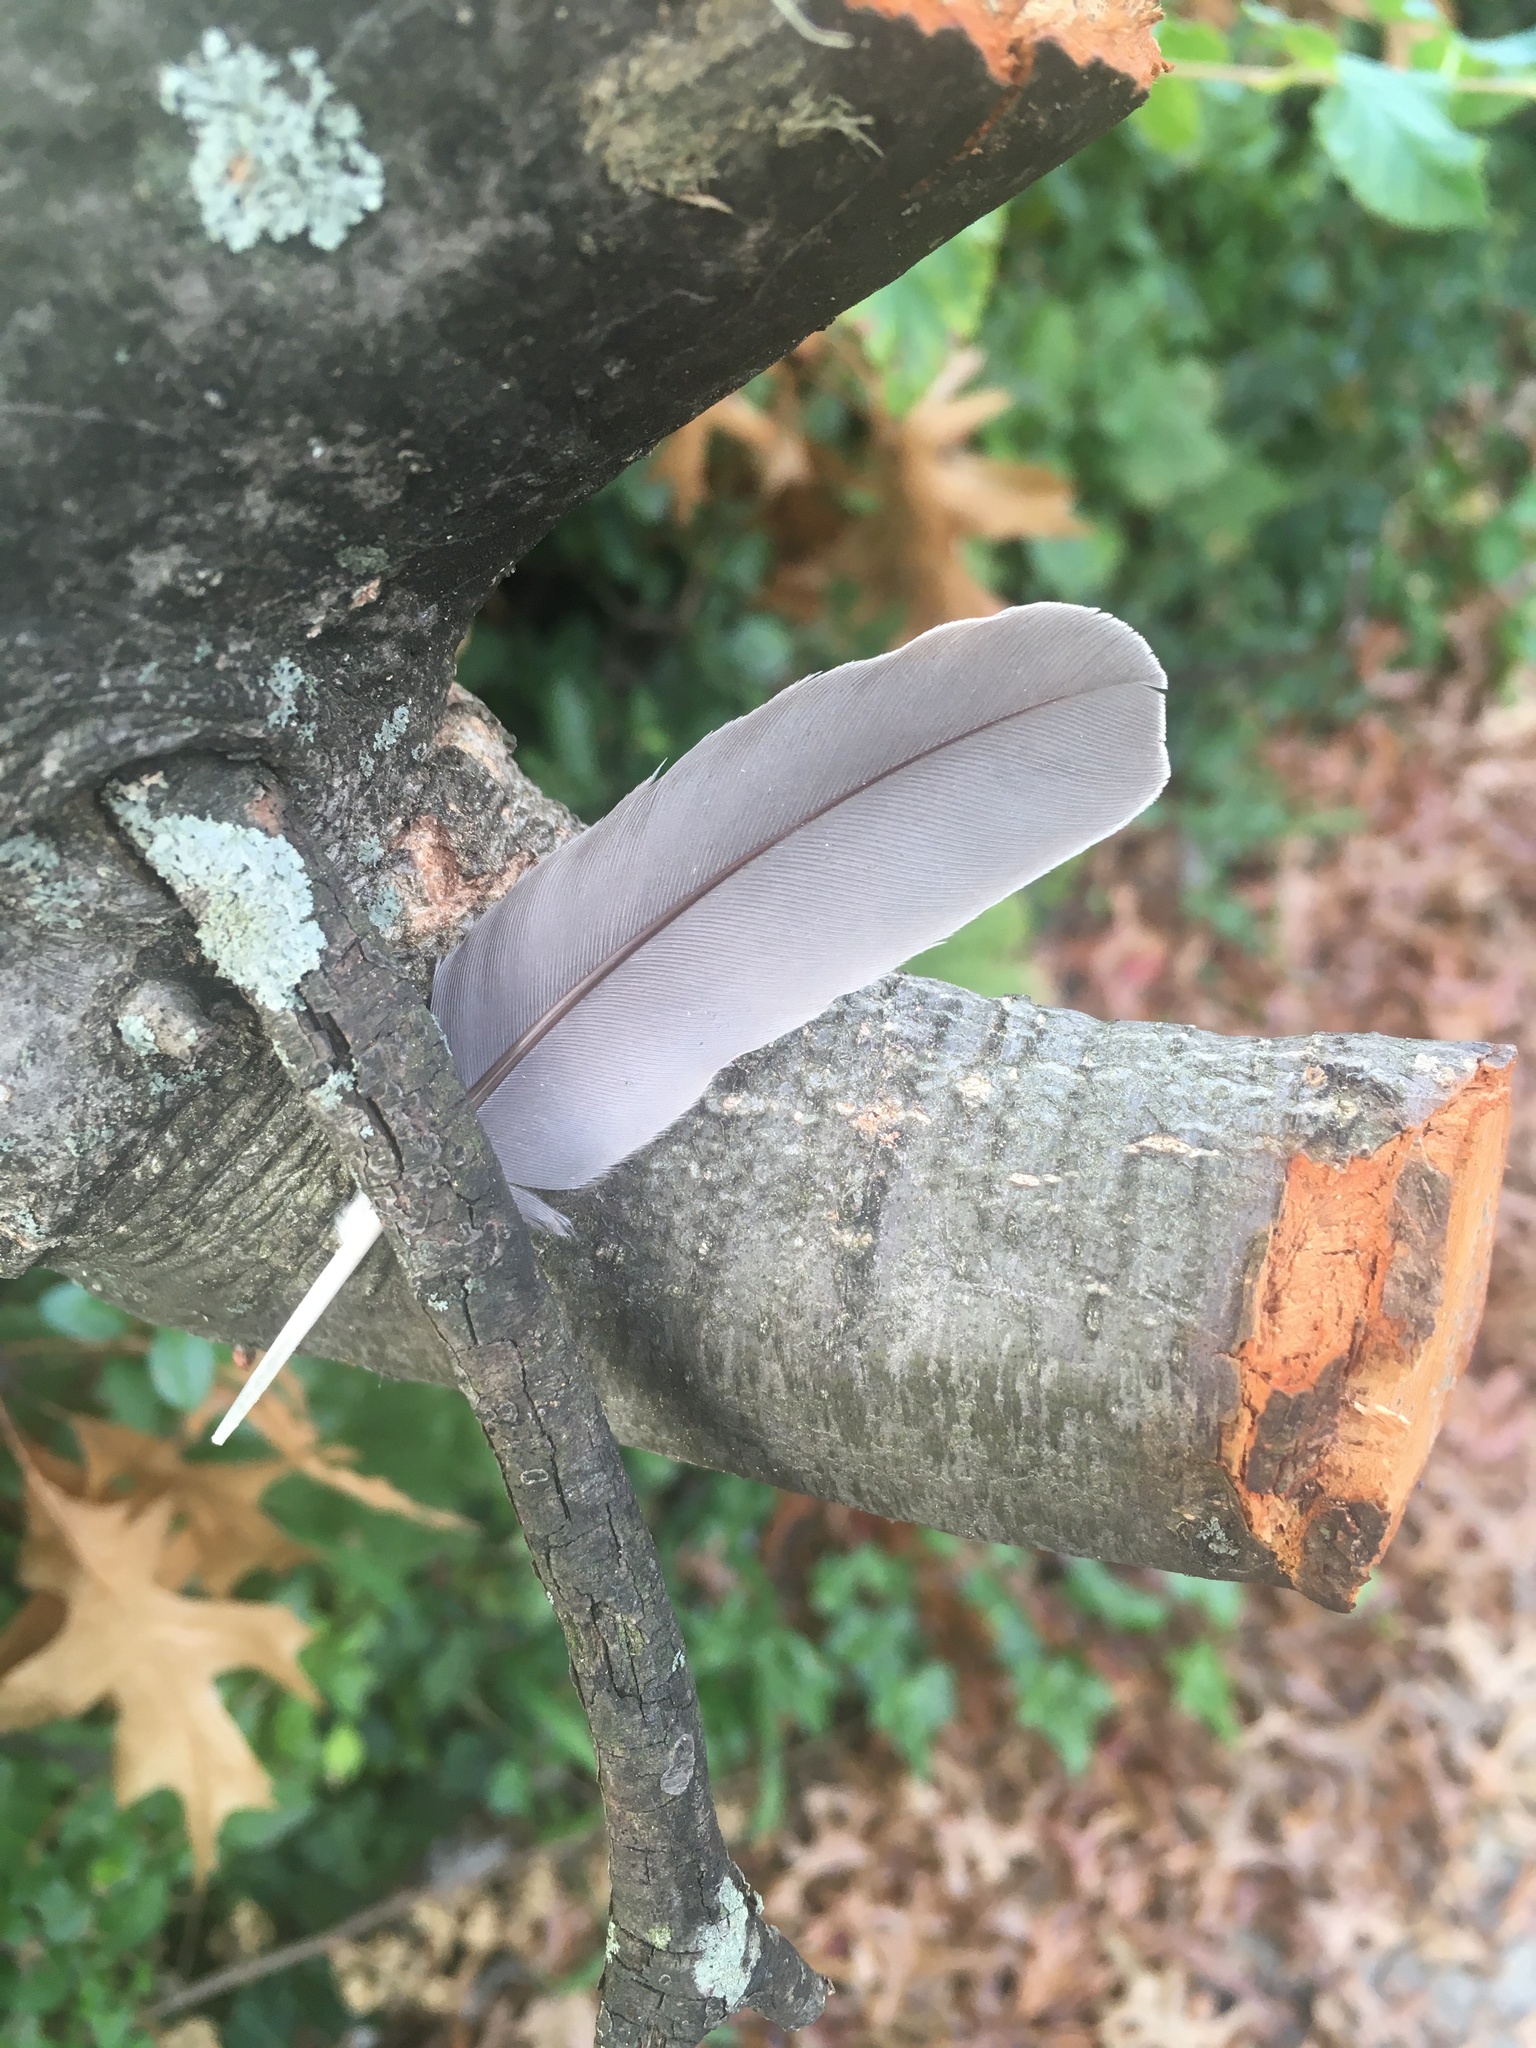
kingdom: Animalia
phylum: Chordata
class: Aves
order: Columbiformes
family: Columbidae
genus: Zenaida
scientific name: Zenaida macroura
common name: Mourning dove
